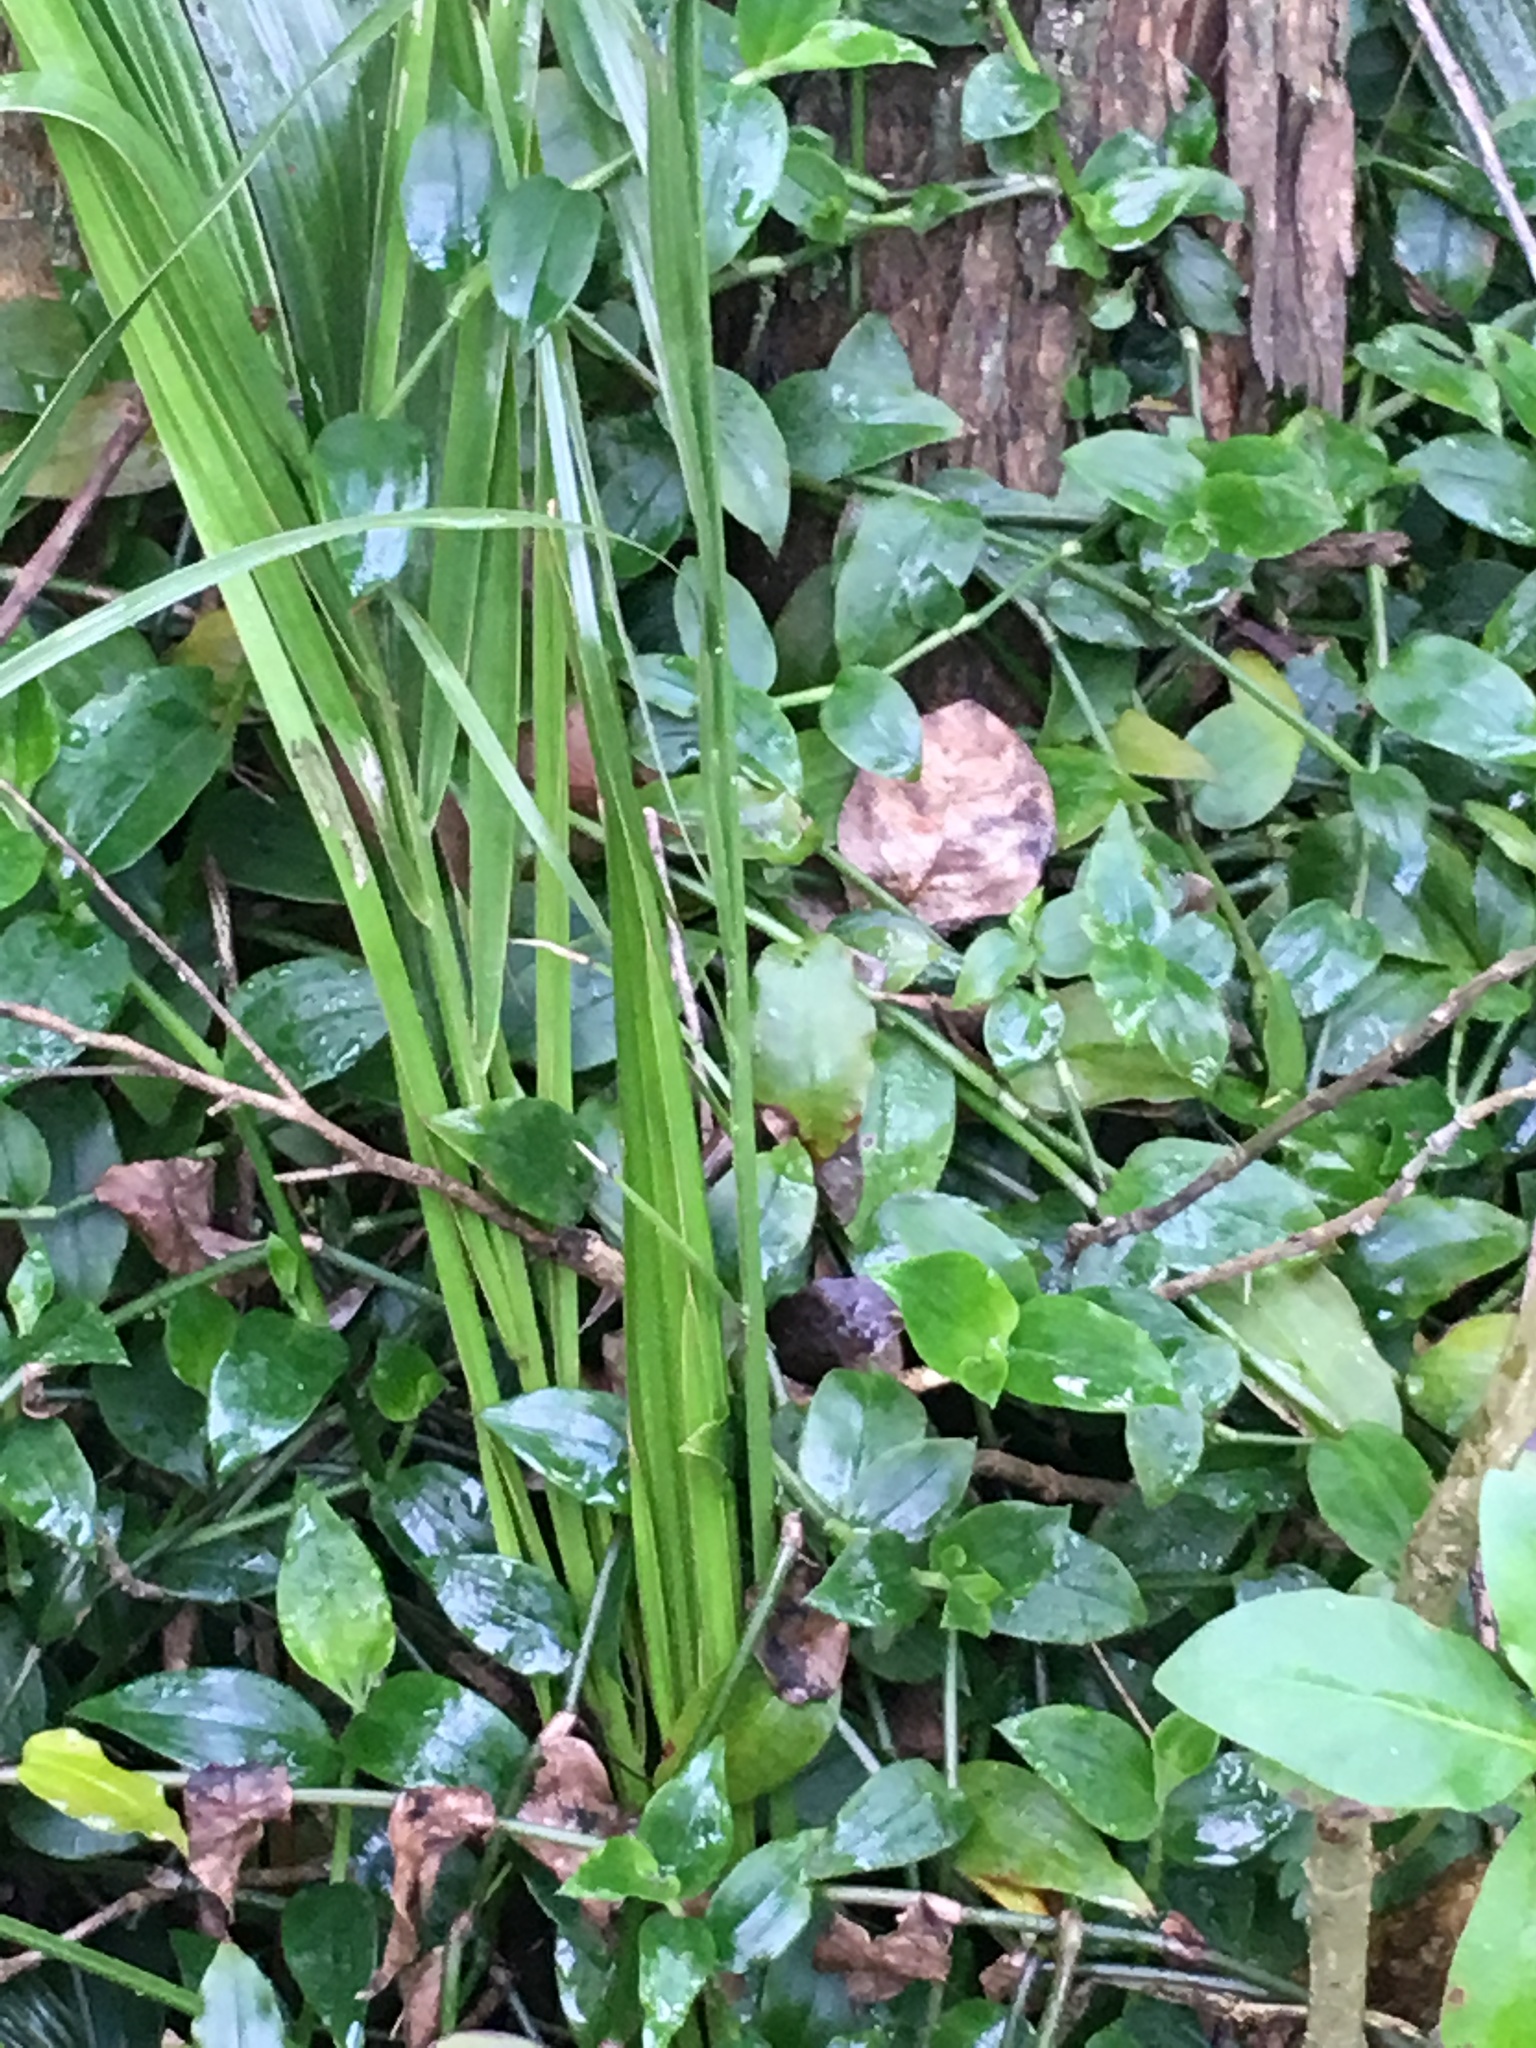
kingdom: Plantae
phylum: Tracheophyta
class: Liliopsida
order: Commelinales
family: Commelinaceae
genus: Tradescantia
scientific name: Tradescantia fluminensis
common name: Wandering-jew
